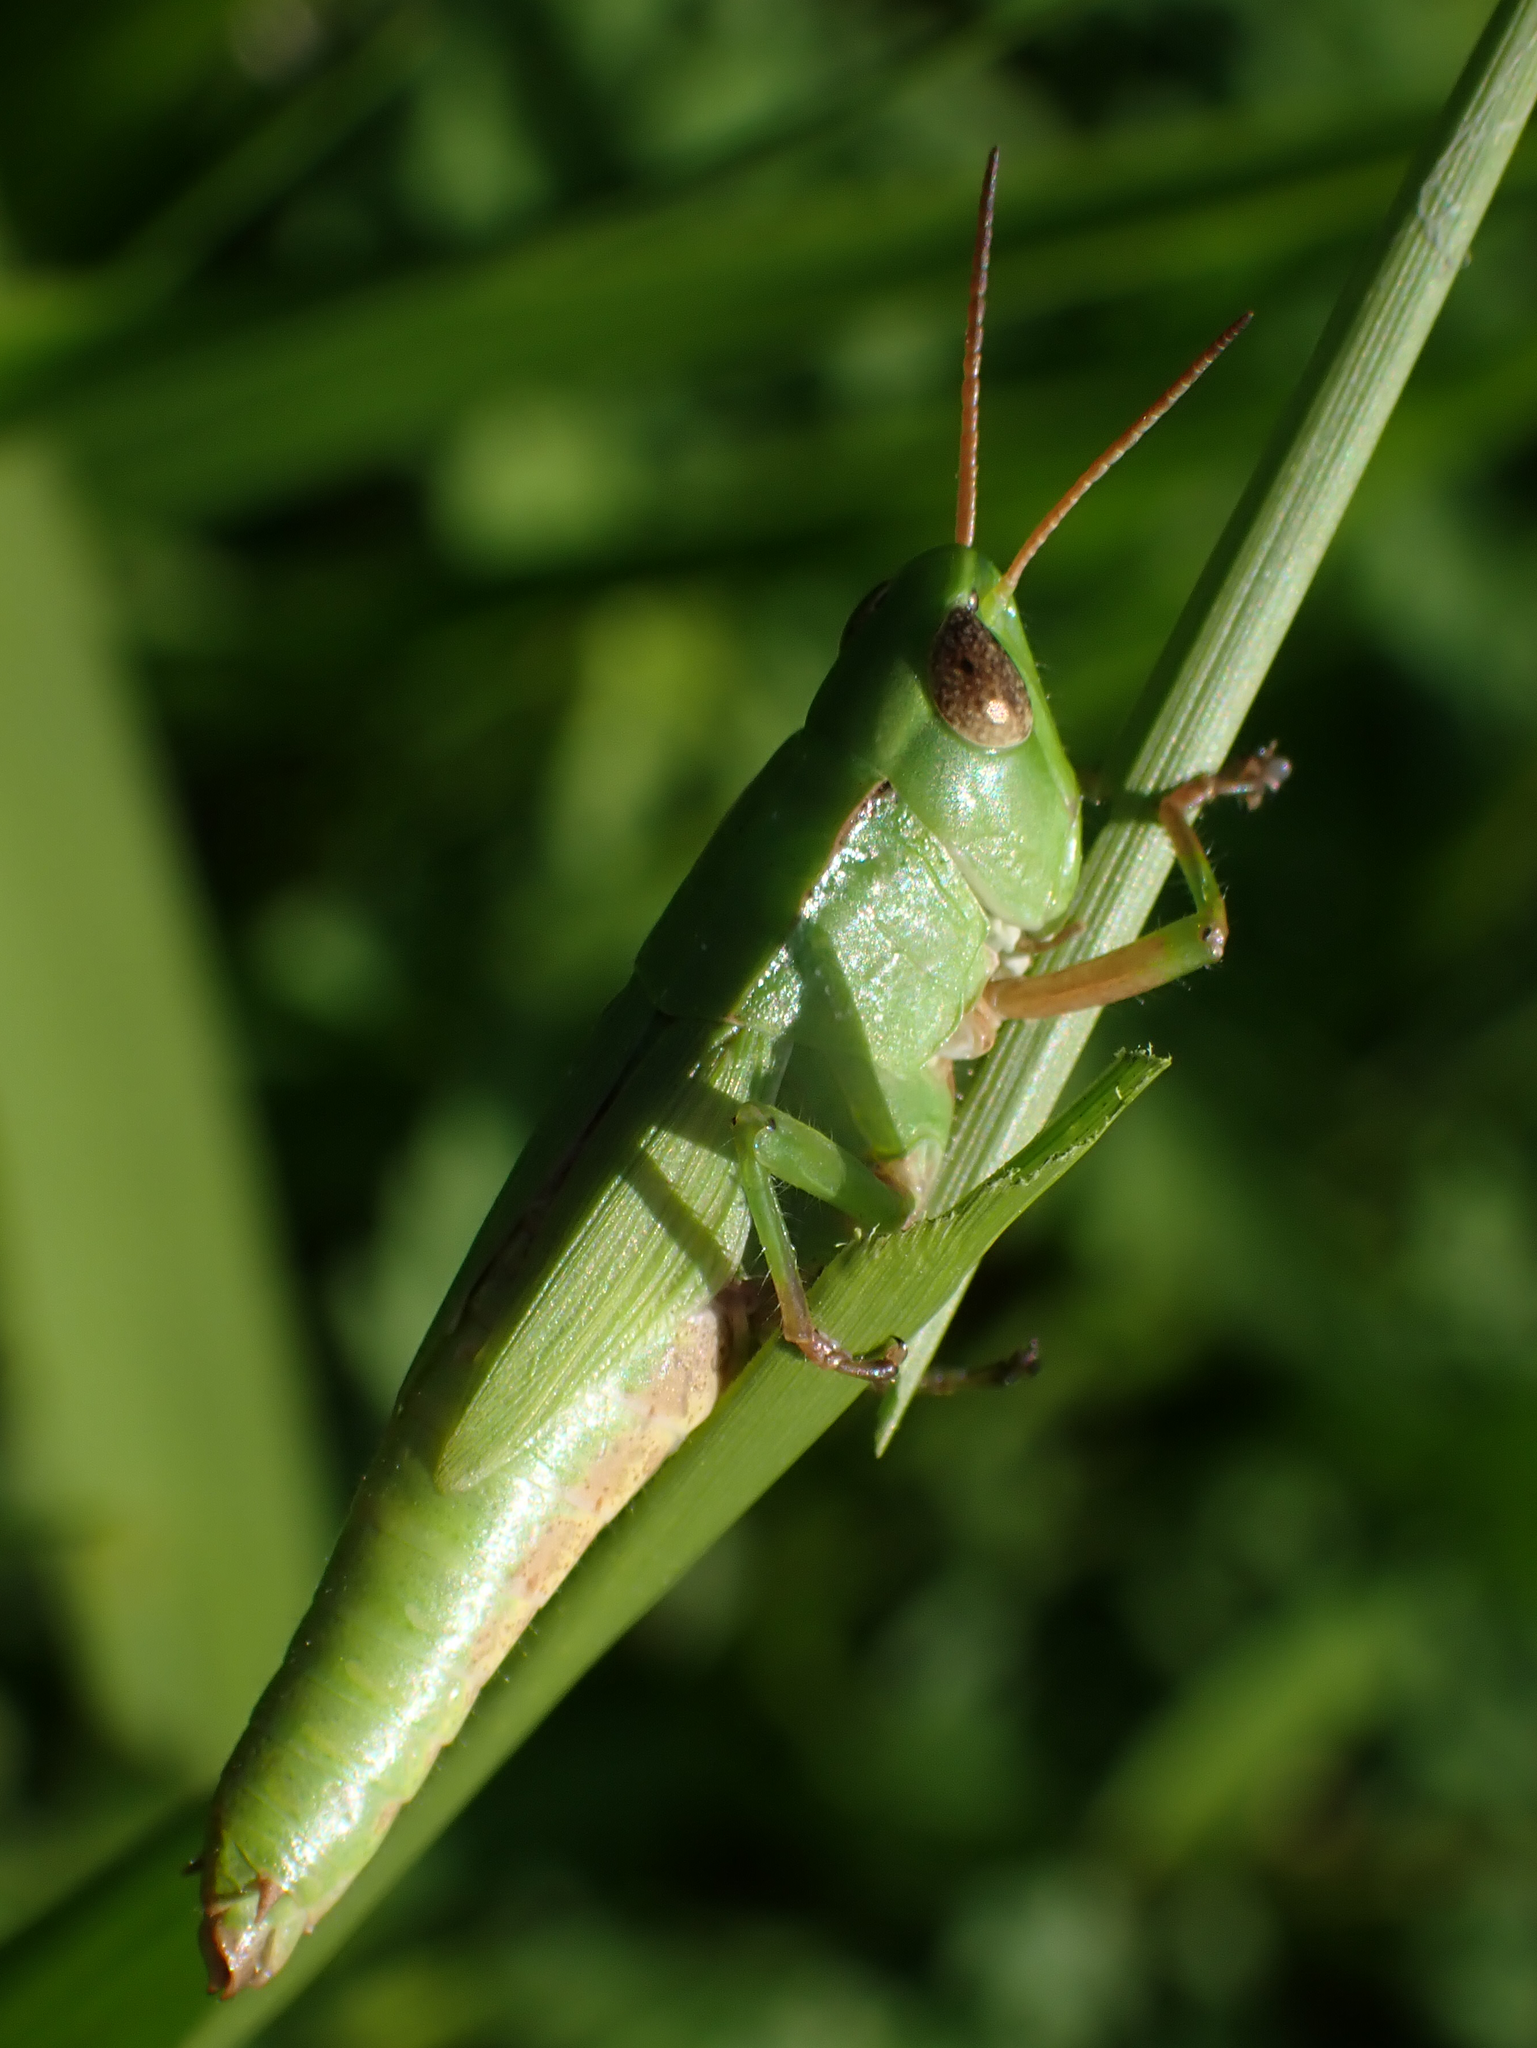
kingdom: Animalia
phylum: Arthropoda
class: Insecta
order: Orthoptera
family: Acrididae
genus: Dichromorpha
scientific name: Dichromorpha viridis
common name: Short-winged green grasshopper
